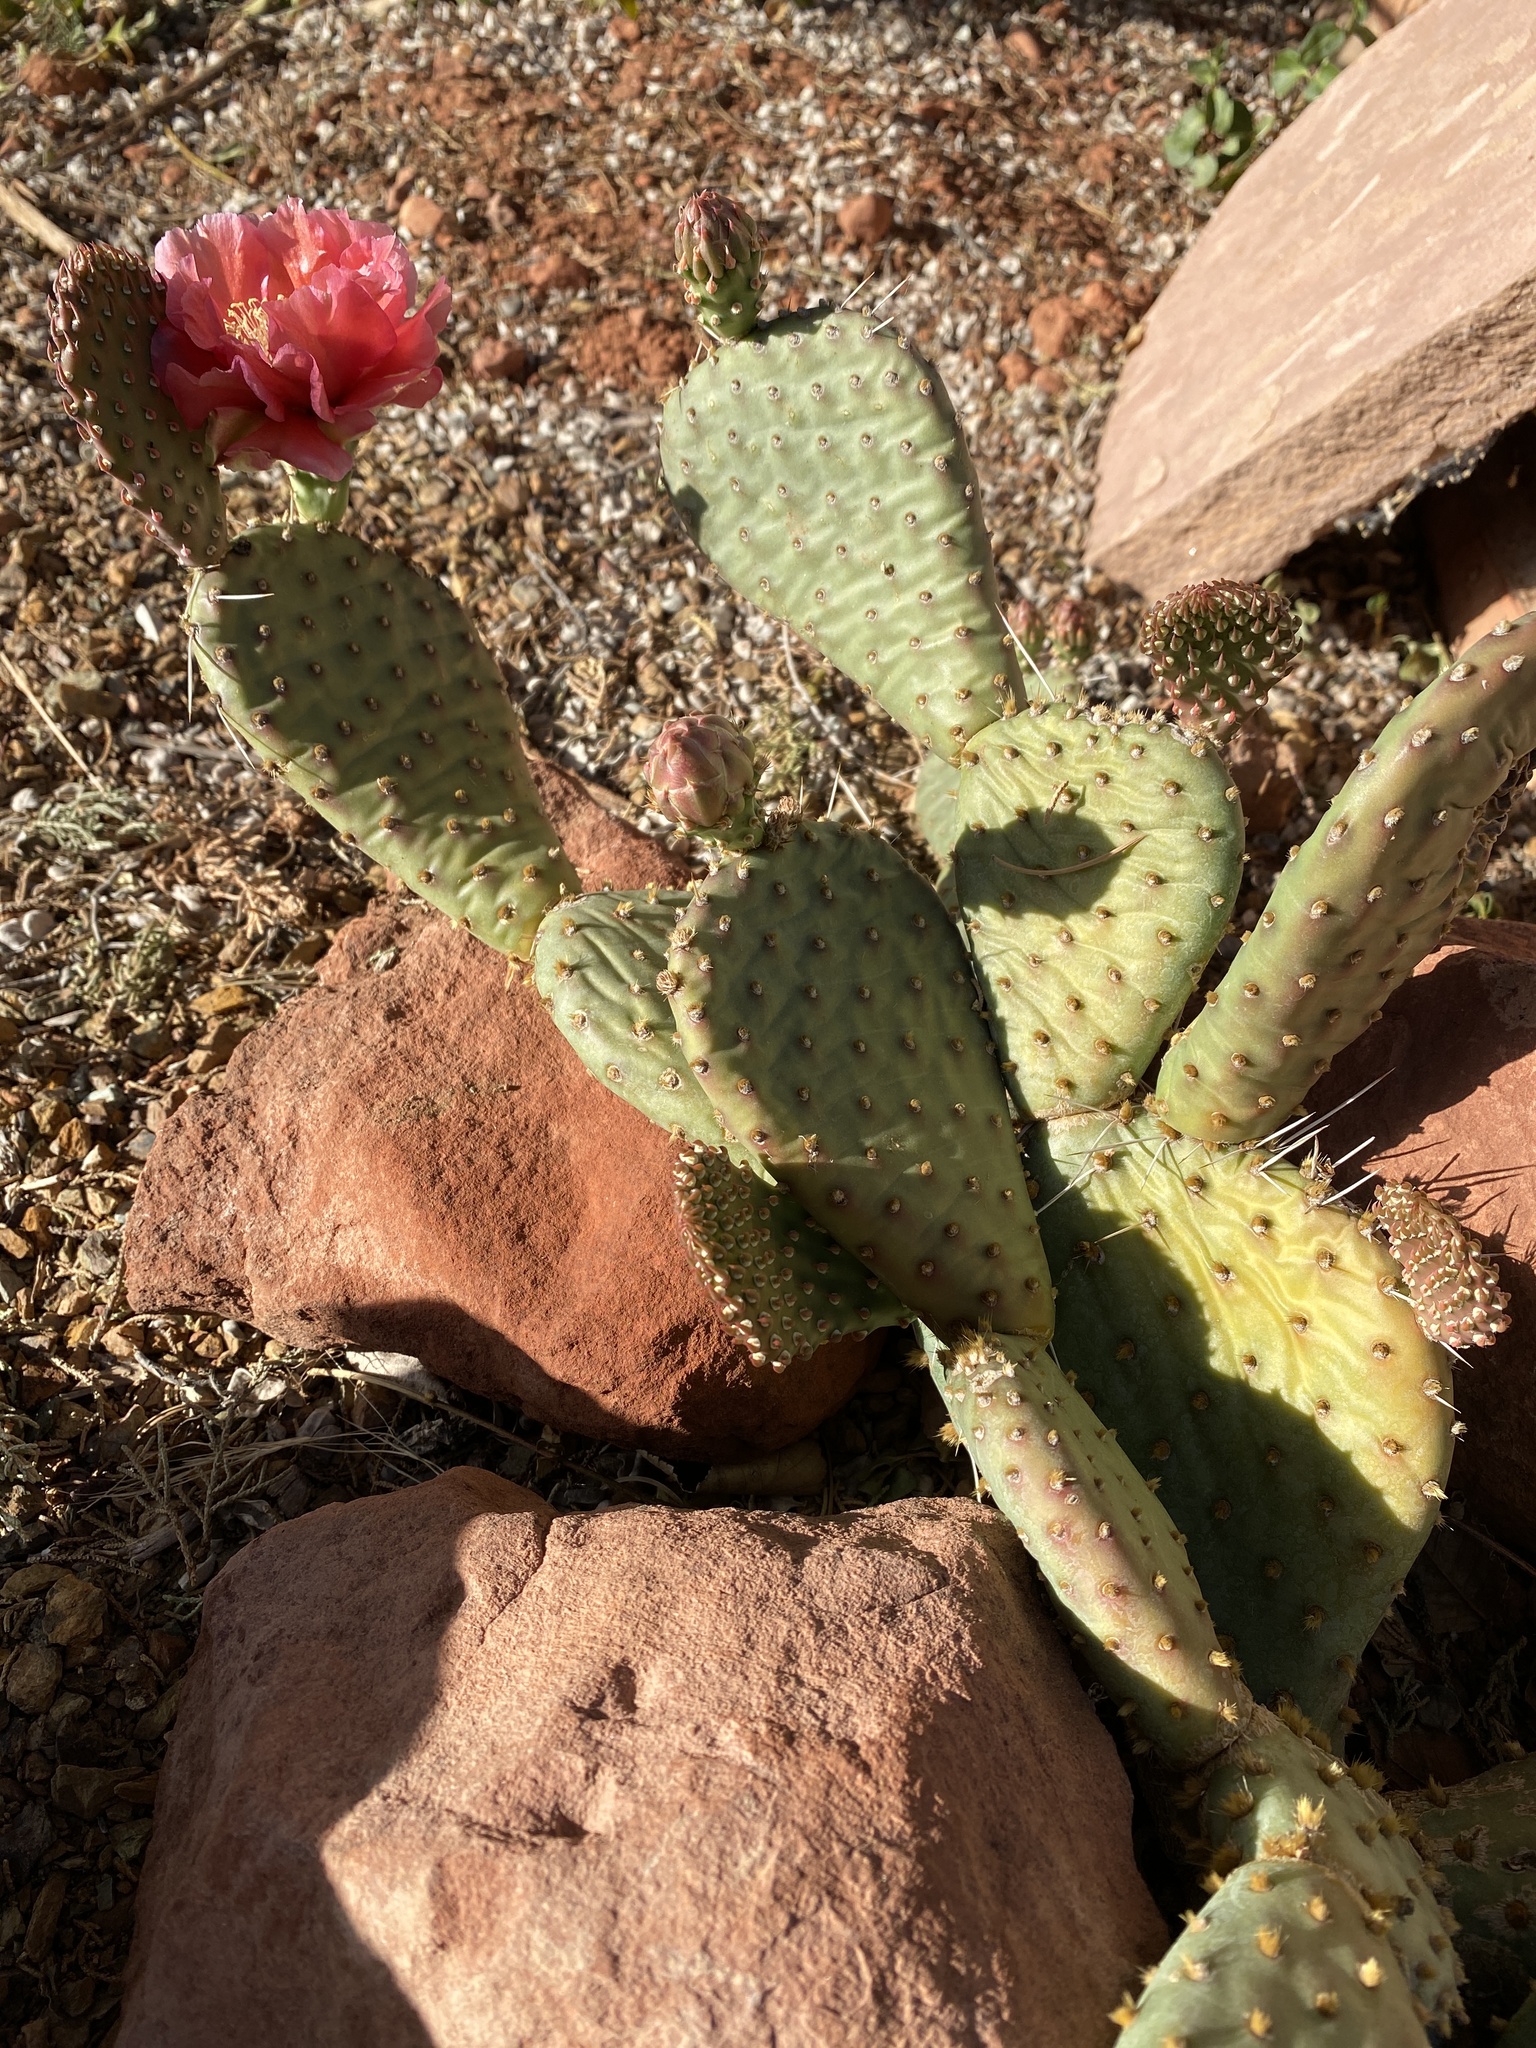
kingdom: Plantae
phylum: Tracheophyta
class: Magnoliopsida
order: Caryophyllales
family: Cactaceae
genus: Opuntia
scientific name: Opuntia basilaris
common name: Beavertail prickly-pear
